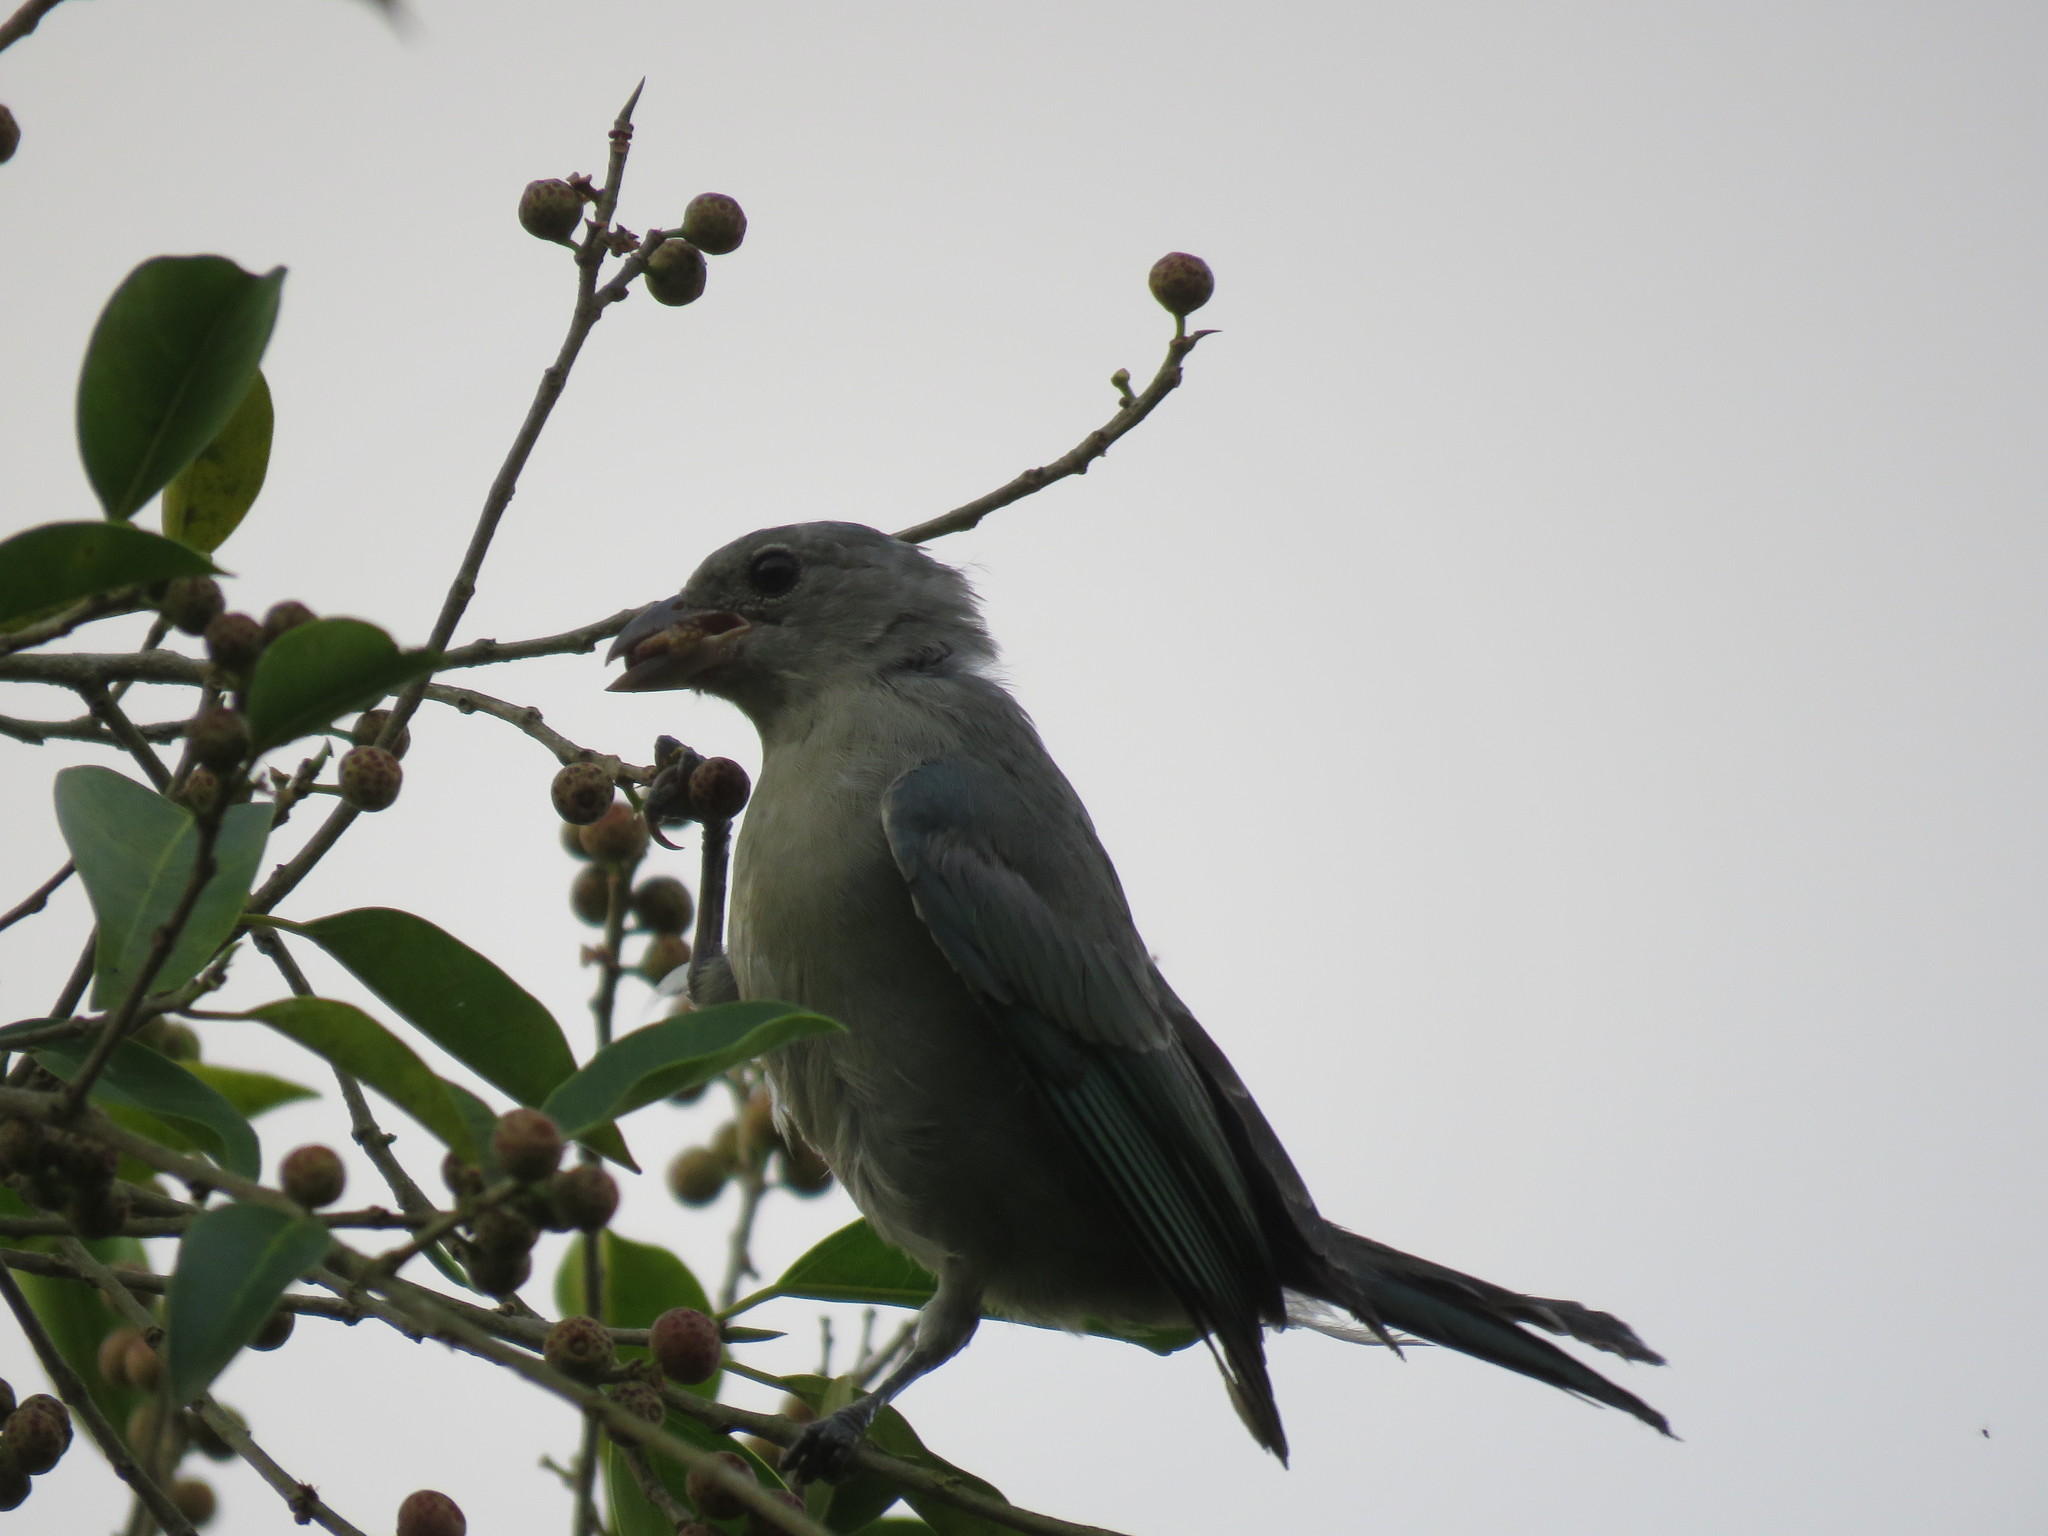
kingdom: Animalia
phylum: Chordata
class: Aves
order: Passeriformes
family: Thraupidae
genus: Thraupis
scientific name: Thraupis sayaca
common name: Sayaca tanager
